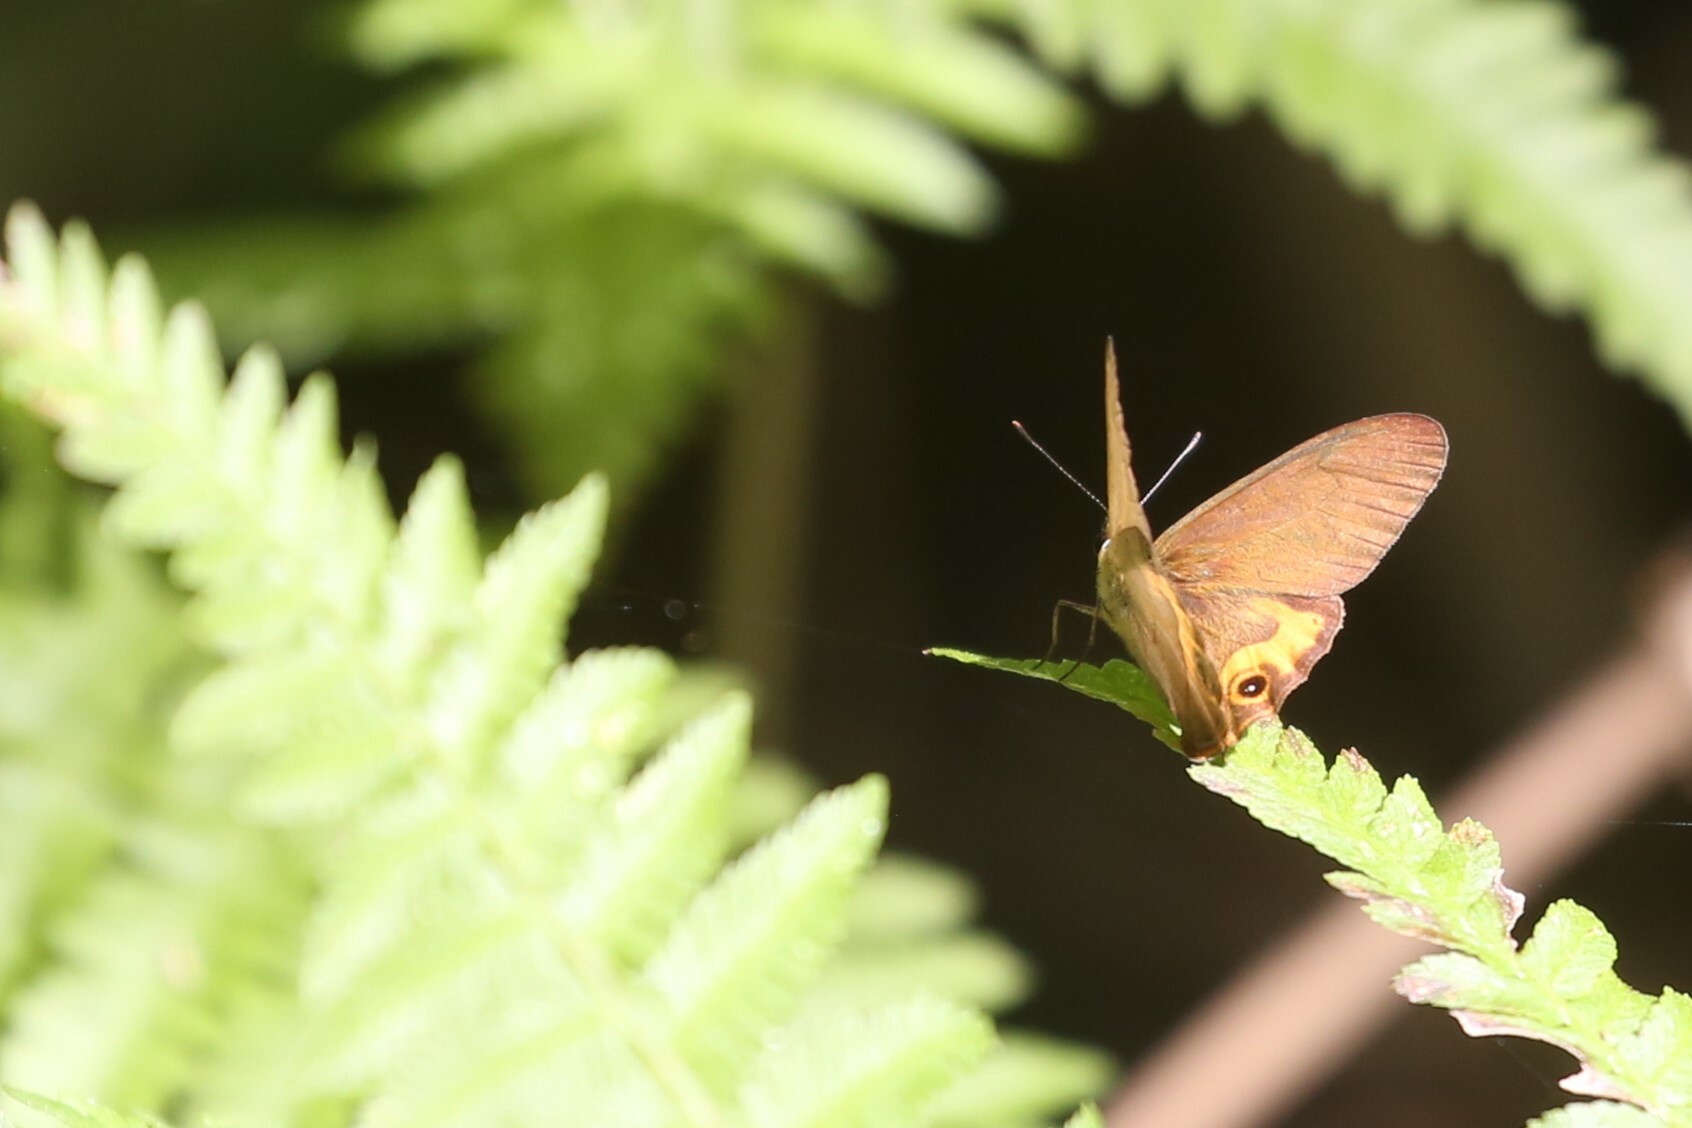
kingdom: Animalia
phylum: Arthropoda
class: Insecta
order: Lepidoptera
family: Nymphalidae
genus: Hypocysta
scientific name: Hypocysta metirius
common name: Brown ringlet
